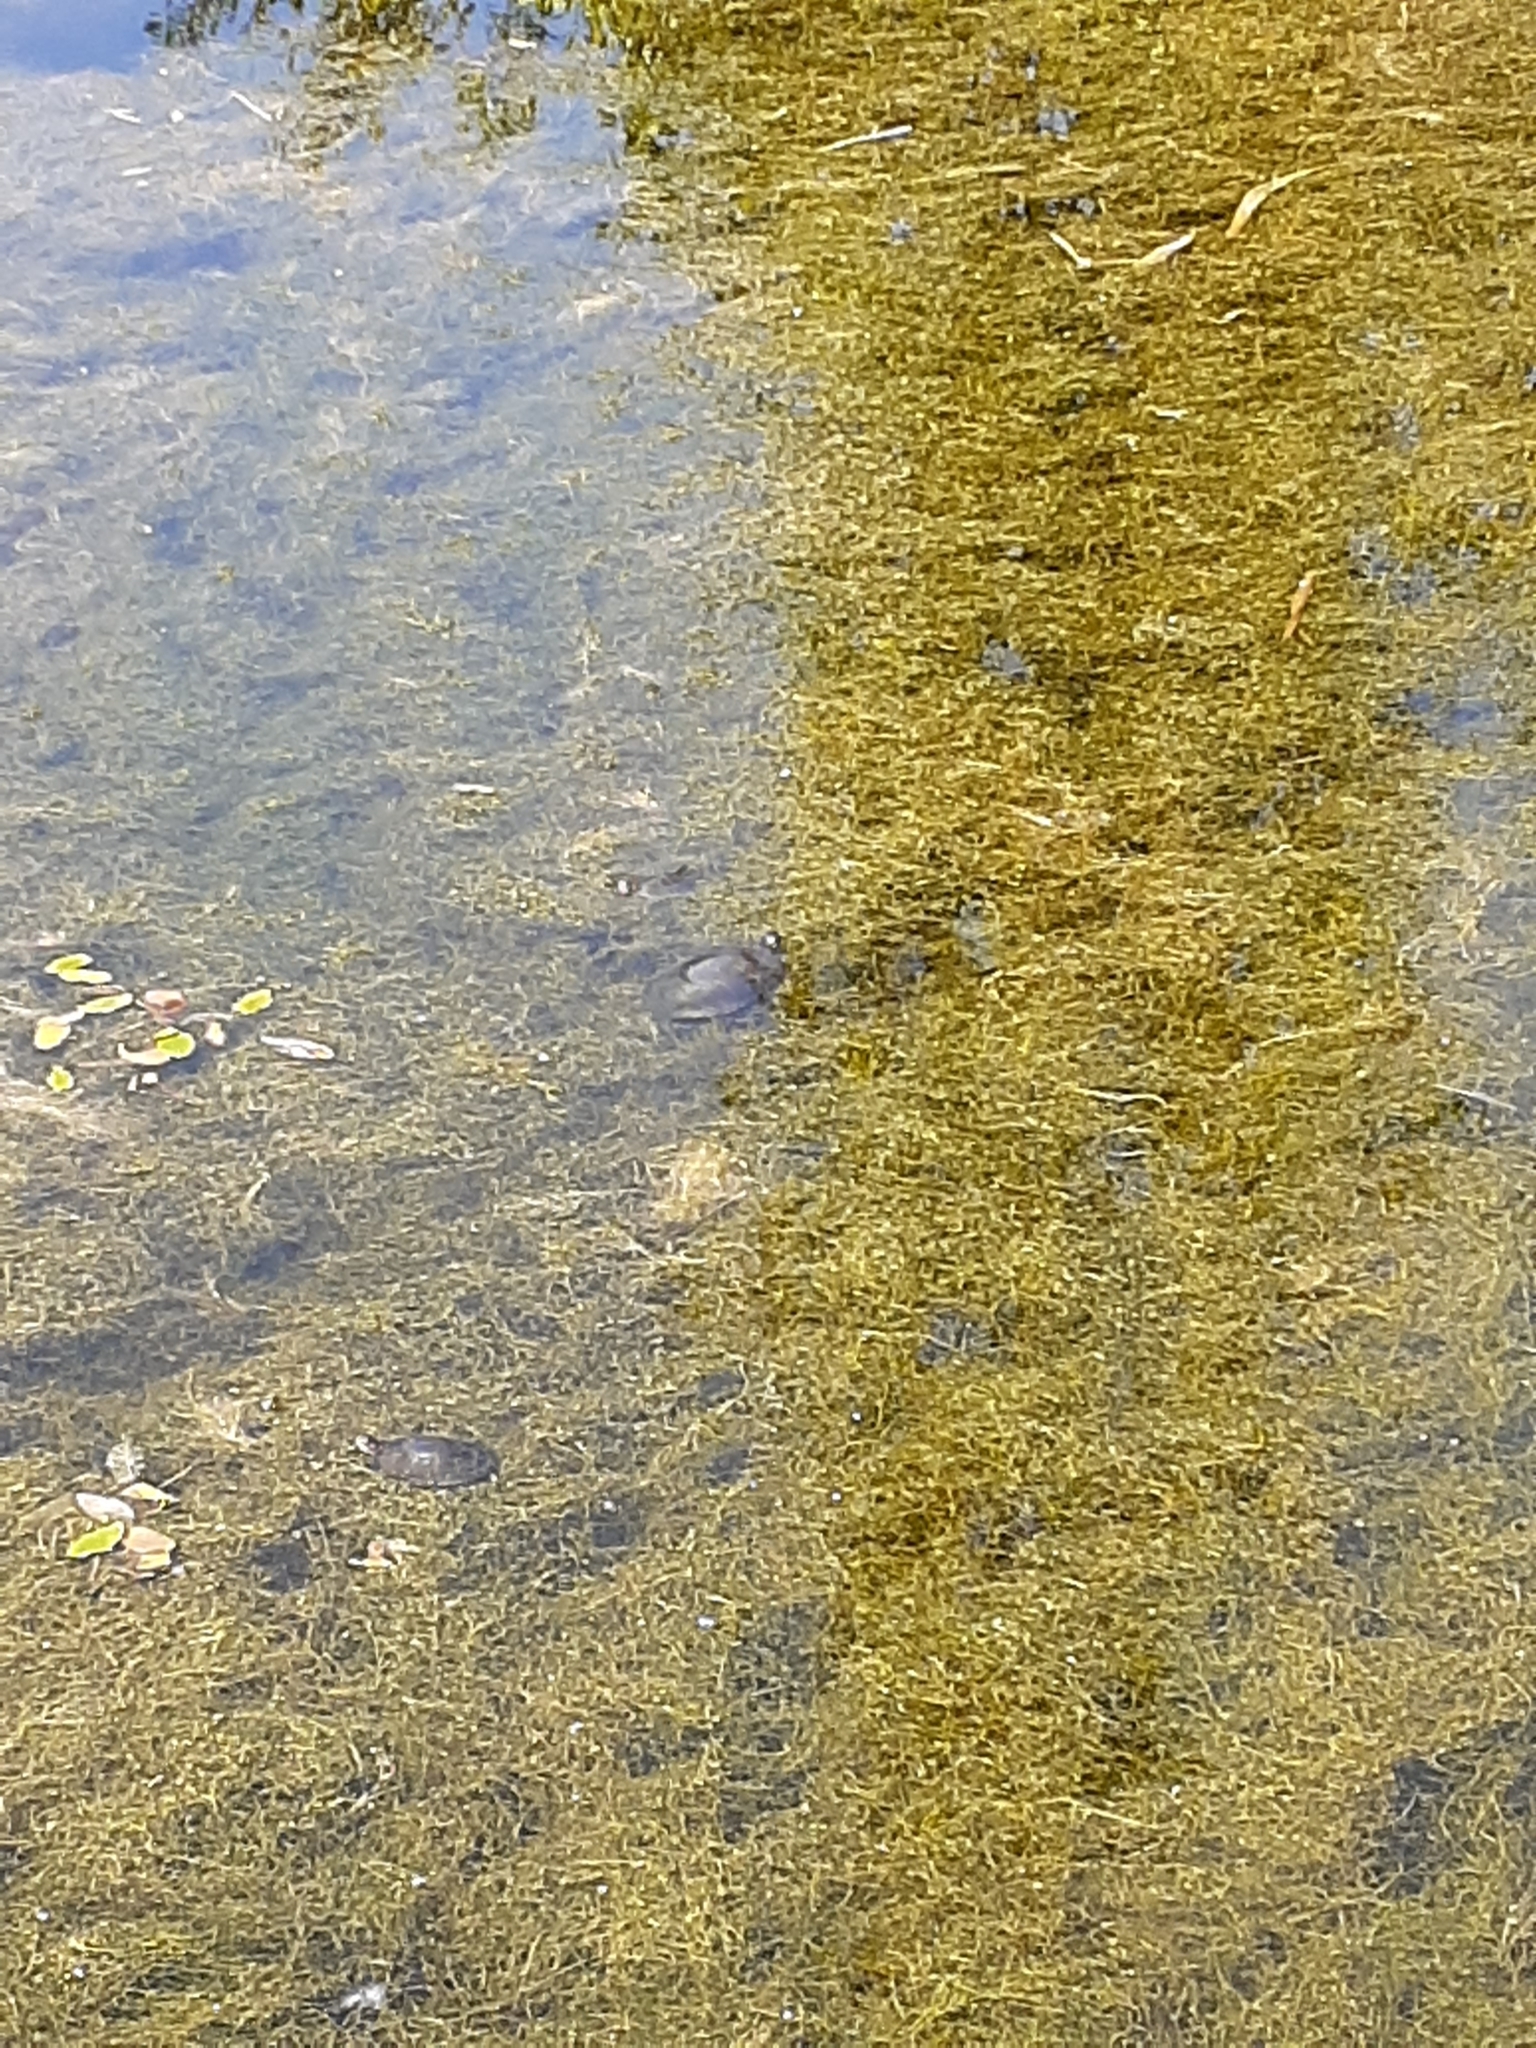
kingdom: Animalia
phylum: Chordata
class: Testudines
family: Emydidae
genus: Chrysemys
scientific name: Chrysemys picta
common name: Painted turtle
